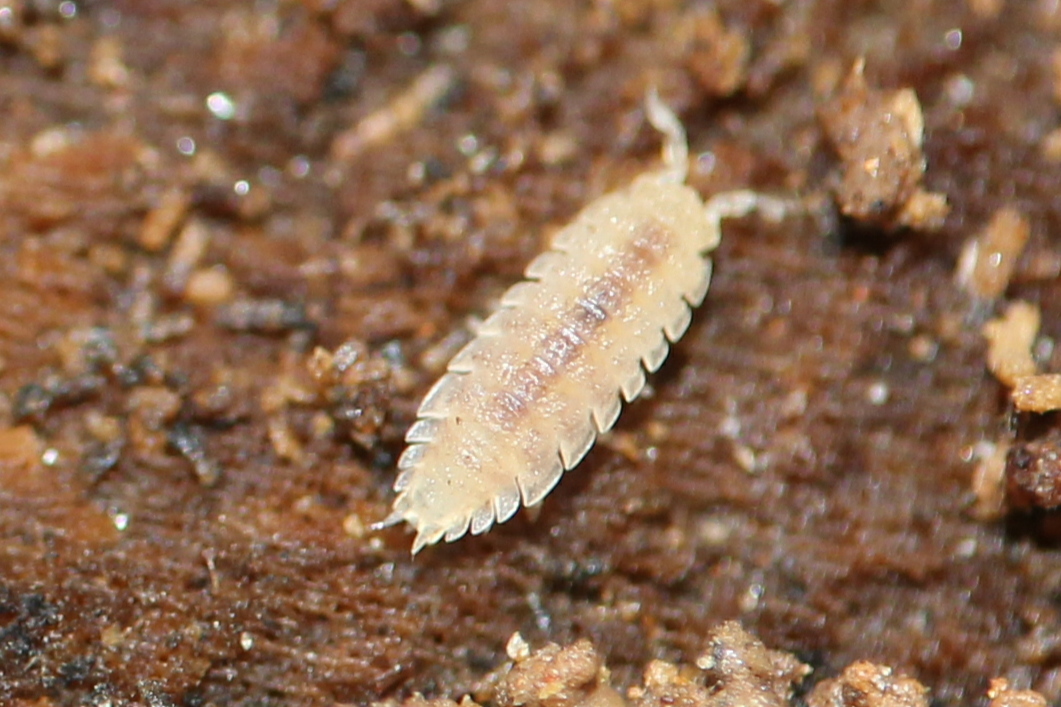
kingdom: Animalia
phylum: Arthropoda
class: Malacostraca
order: Isopoda
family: Trichoniscidae
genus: Haplophthalmus
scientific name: Haplophthalmus danicus
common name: Pillbug
